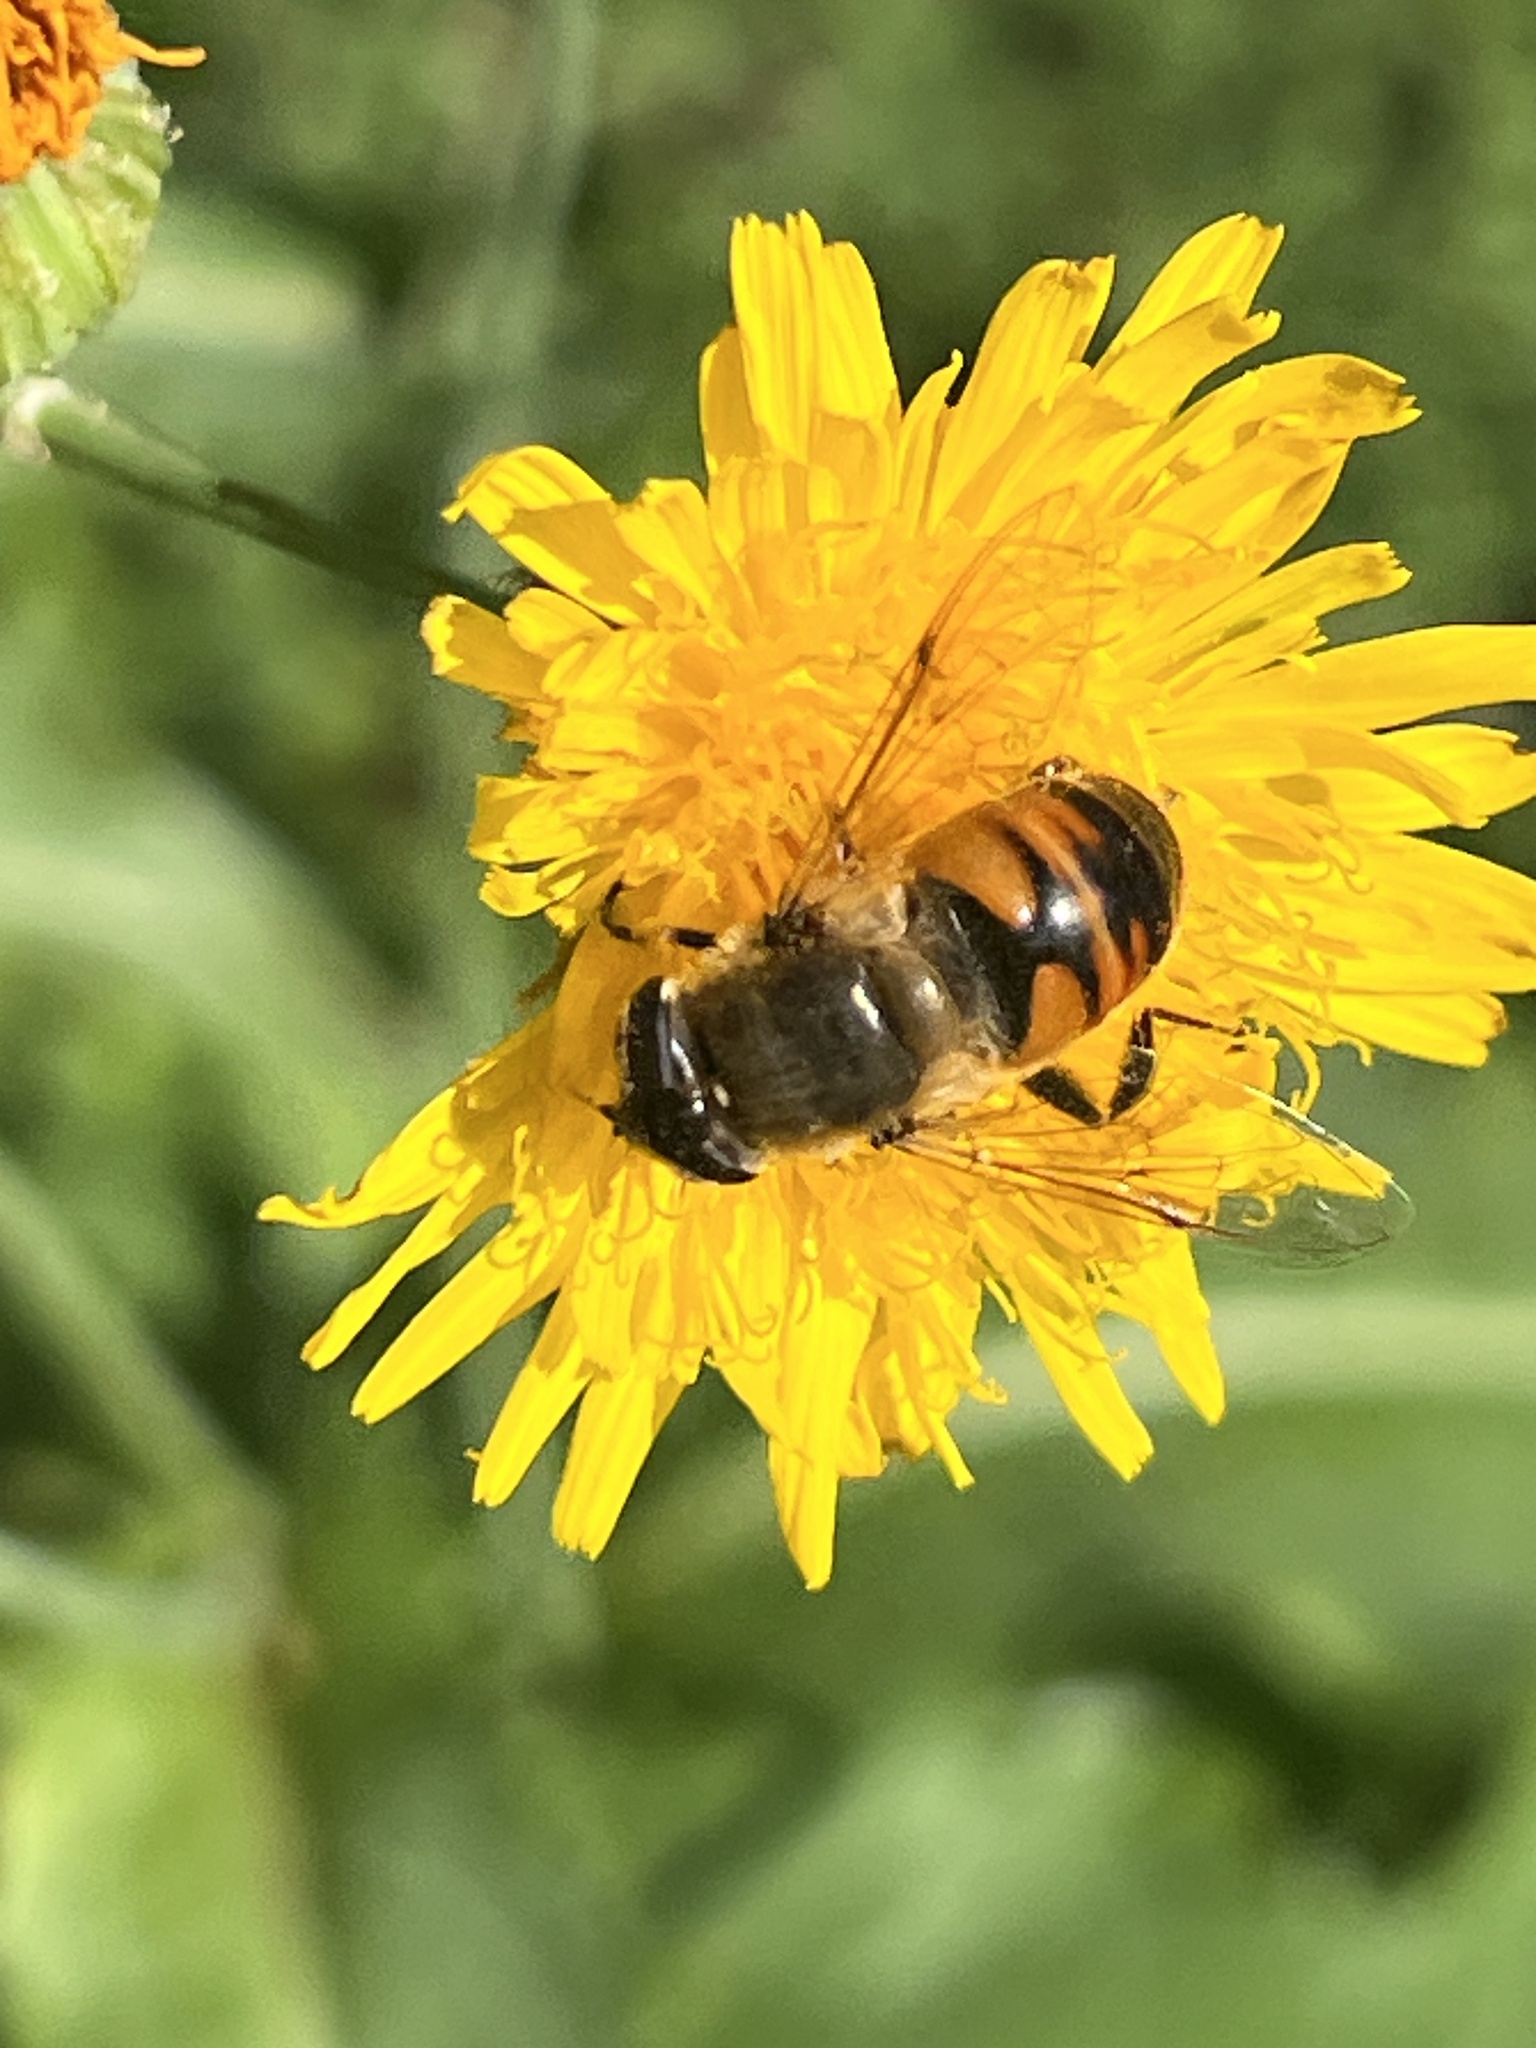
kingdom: Animalia
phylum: Arthropoda
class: Insecta
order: Diptera
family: Syrphidae
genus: Eristalis
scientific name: Eristalis tenax
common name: Drone fly
